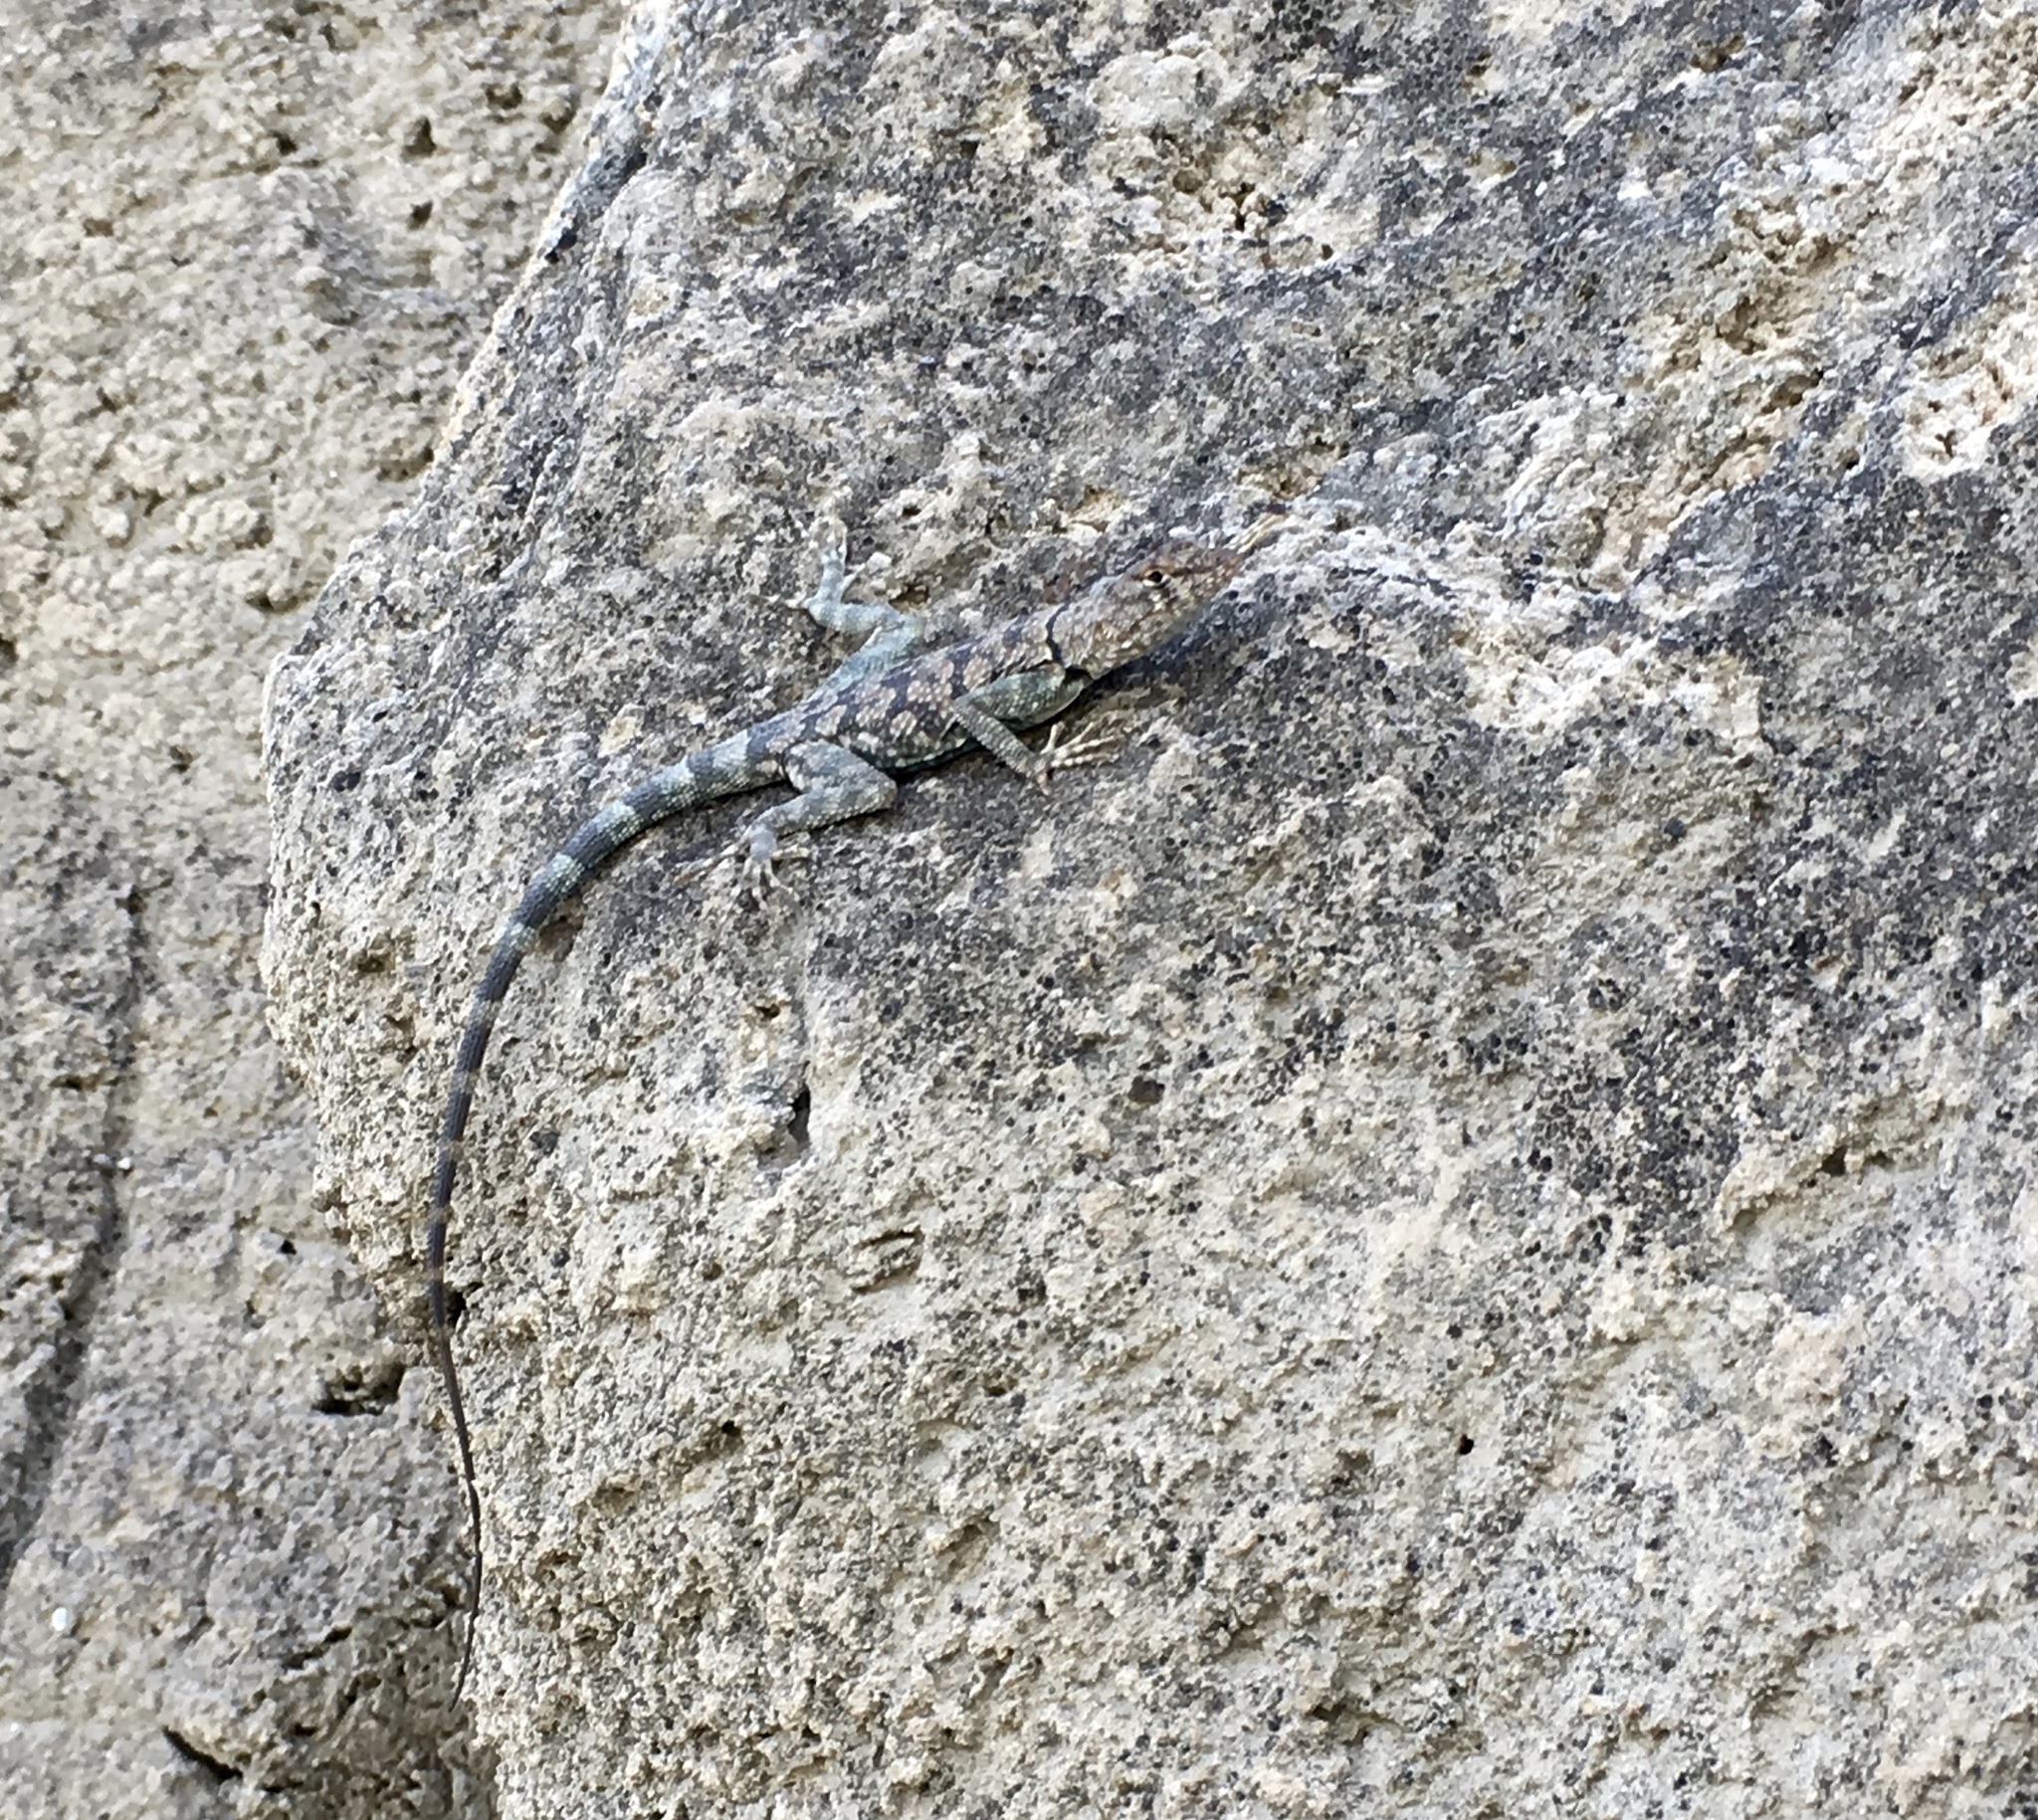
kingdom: Animalia
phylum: Chordata
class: Squamata
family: Phrynosomatidae
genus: Petrosaurus
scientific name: Petrosaurus mearnsi
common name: Banded rock lizard
